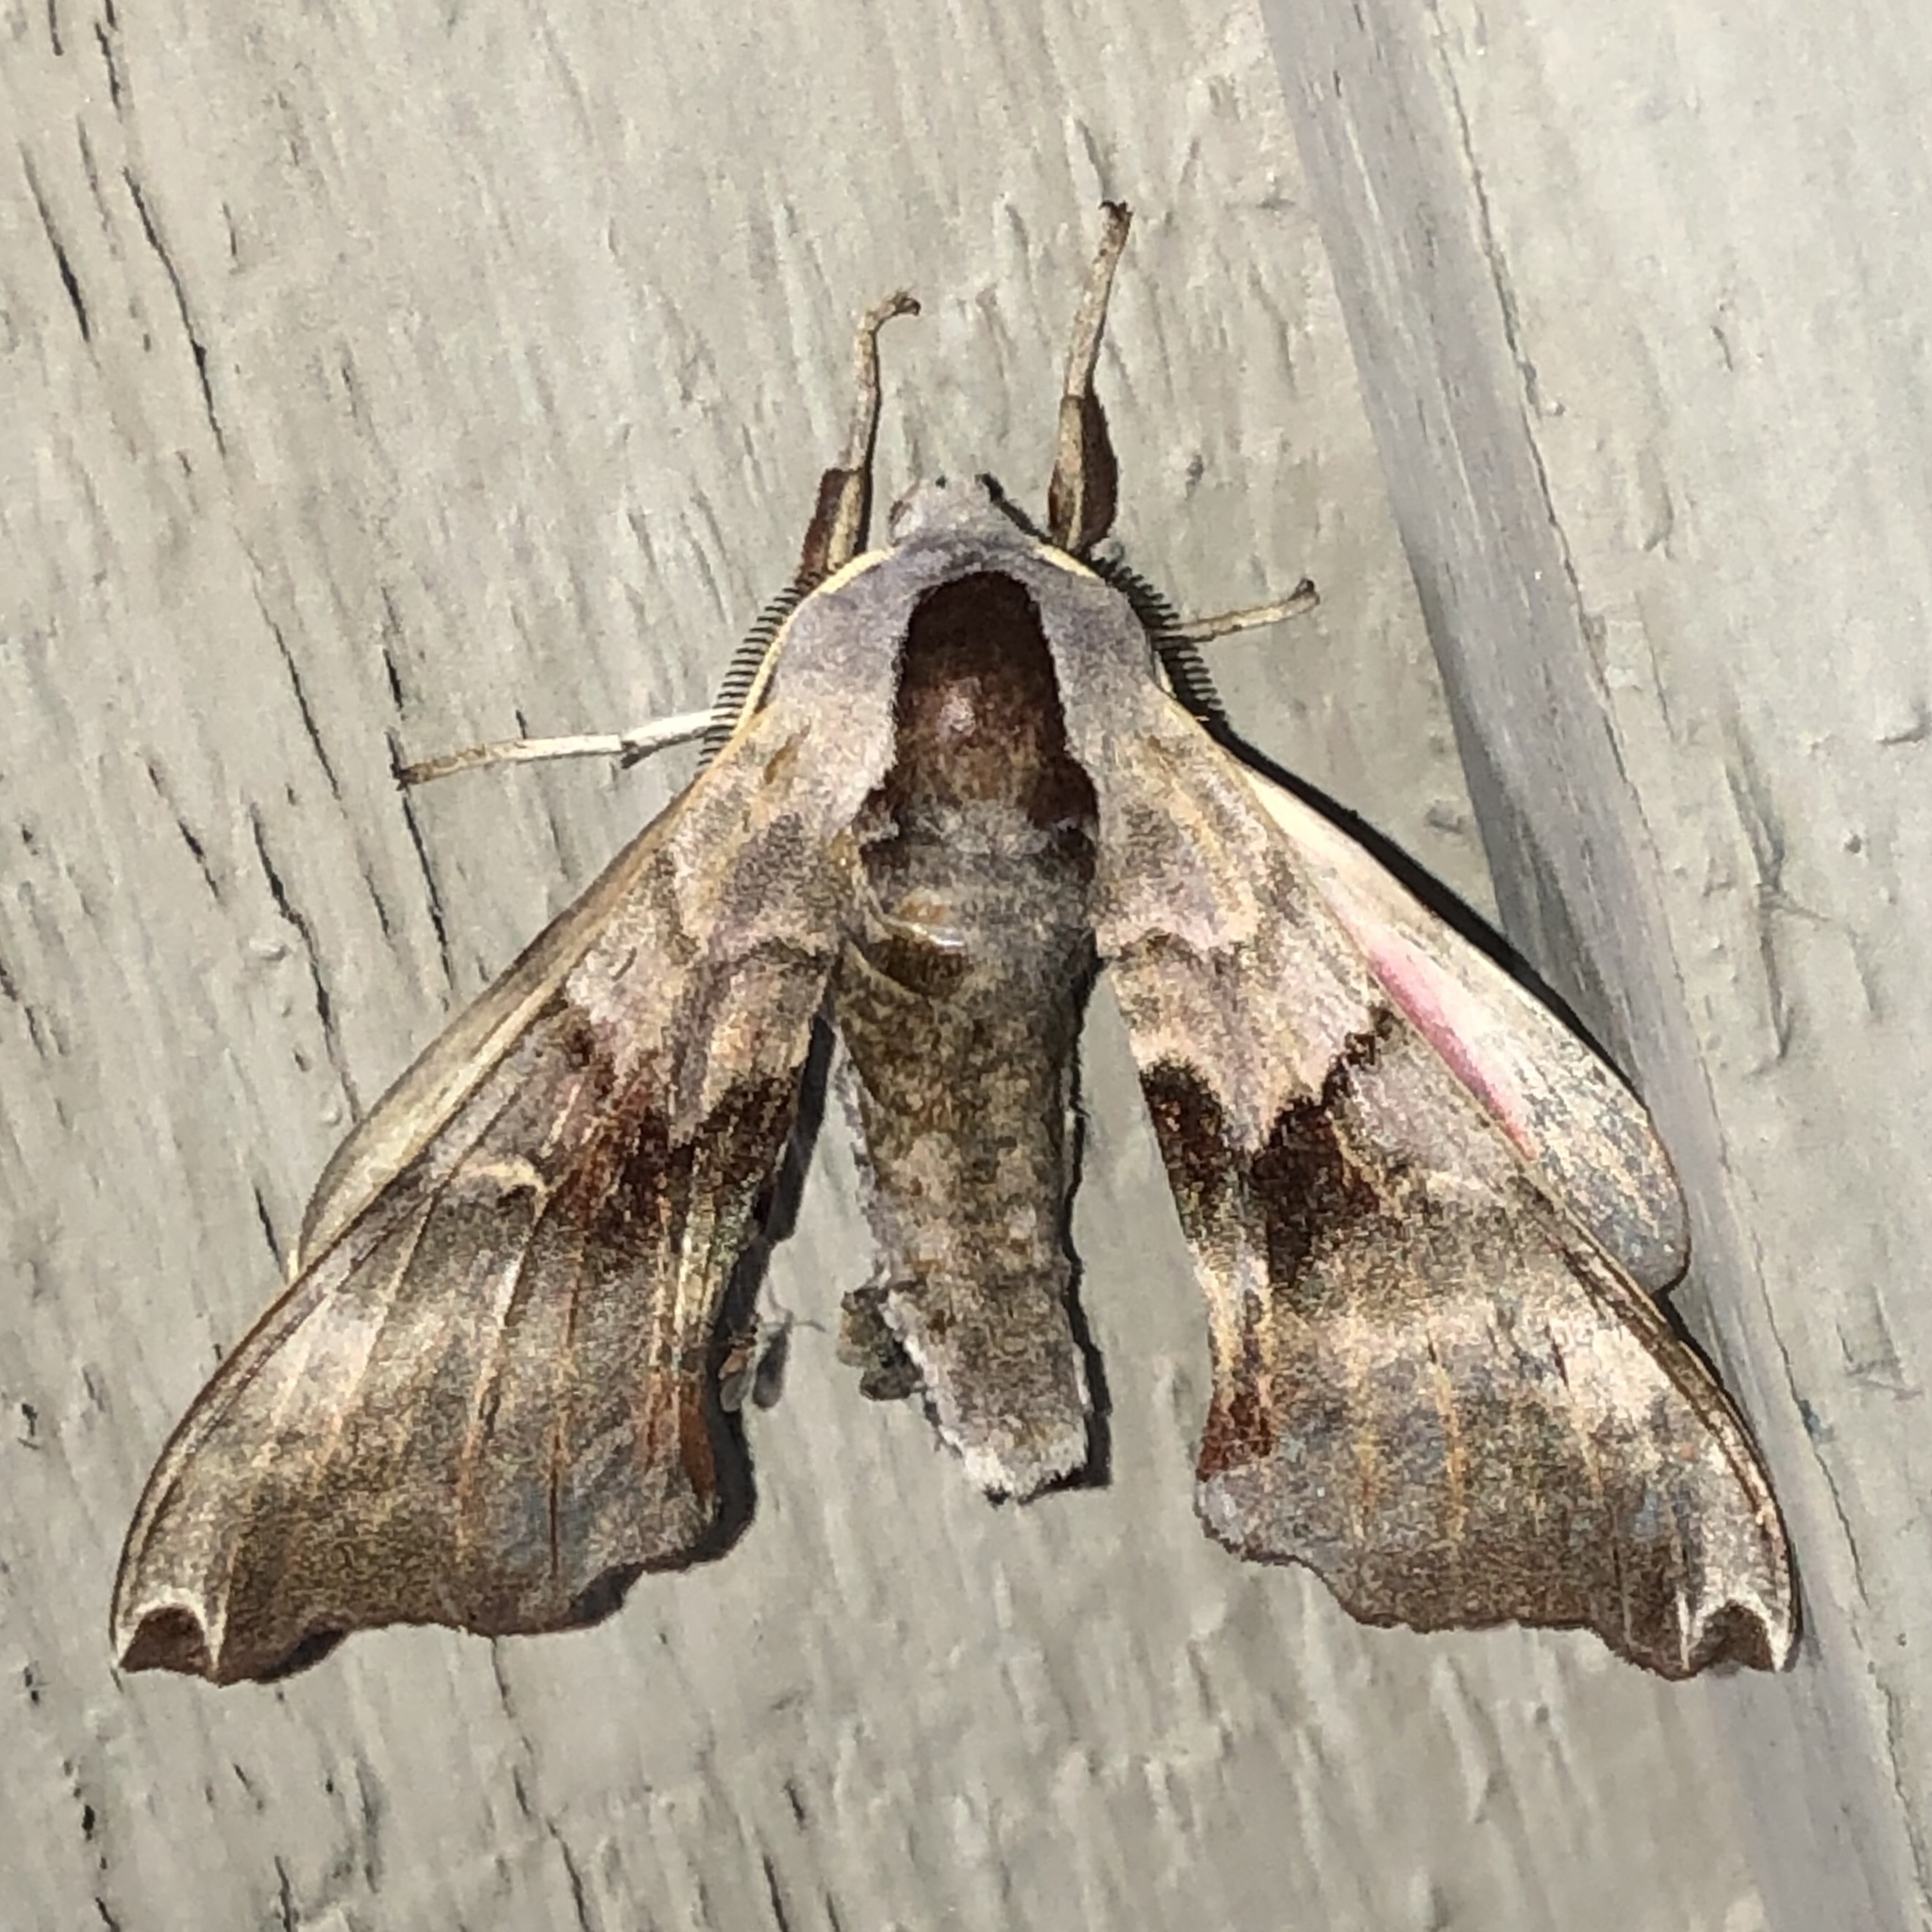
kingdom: Animalia
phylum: Arthropoda
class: Insecta
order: Lepidoptera
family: Sphingidae
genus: Smerinthus
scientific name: Smerinthus jamaicensis
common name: Twin spotted sphinx
